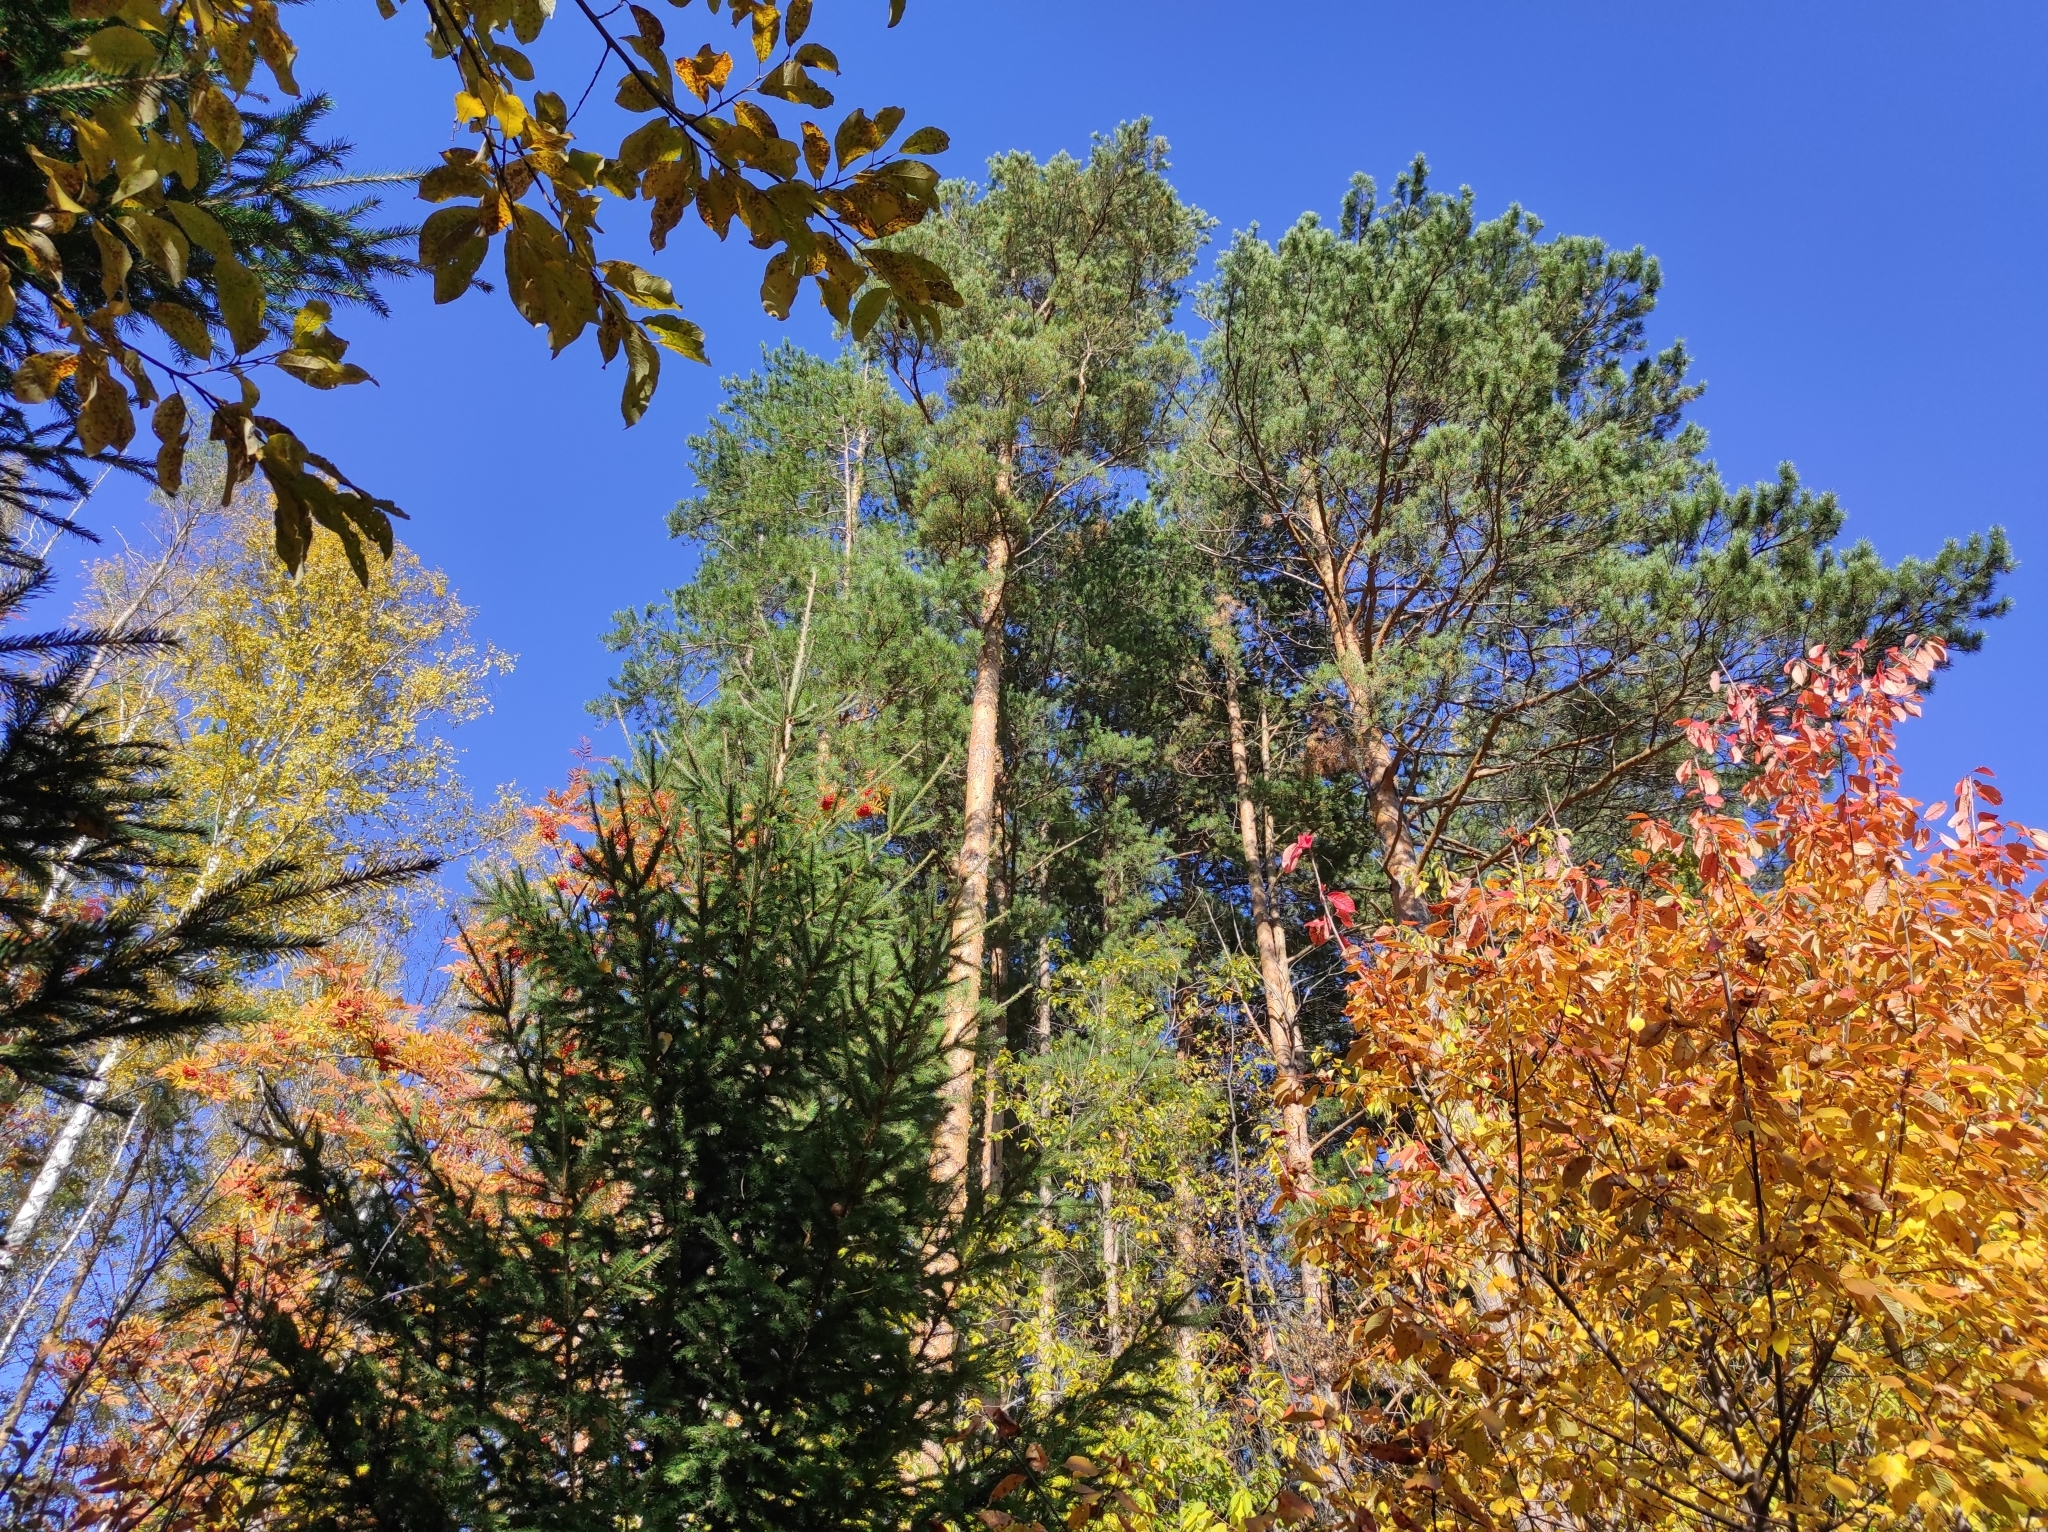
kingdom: Plantae
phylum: Tracheophyta
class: Pinopsida
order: Pinales
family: Pinaceae
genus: Pinus
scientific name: Pinus sylvestris
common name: Scots pine
